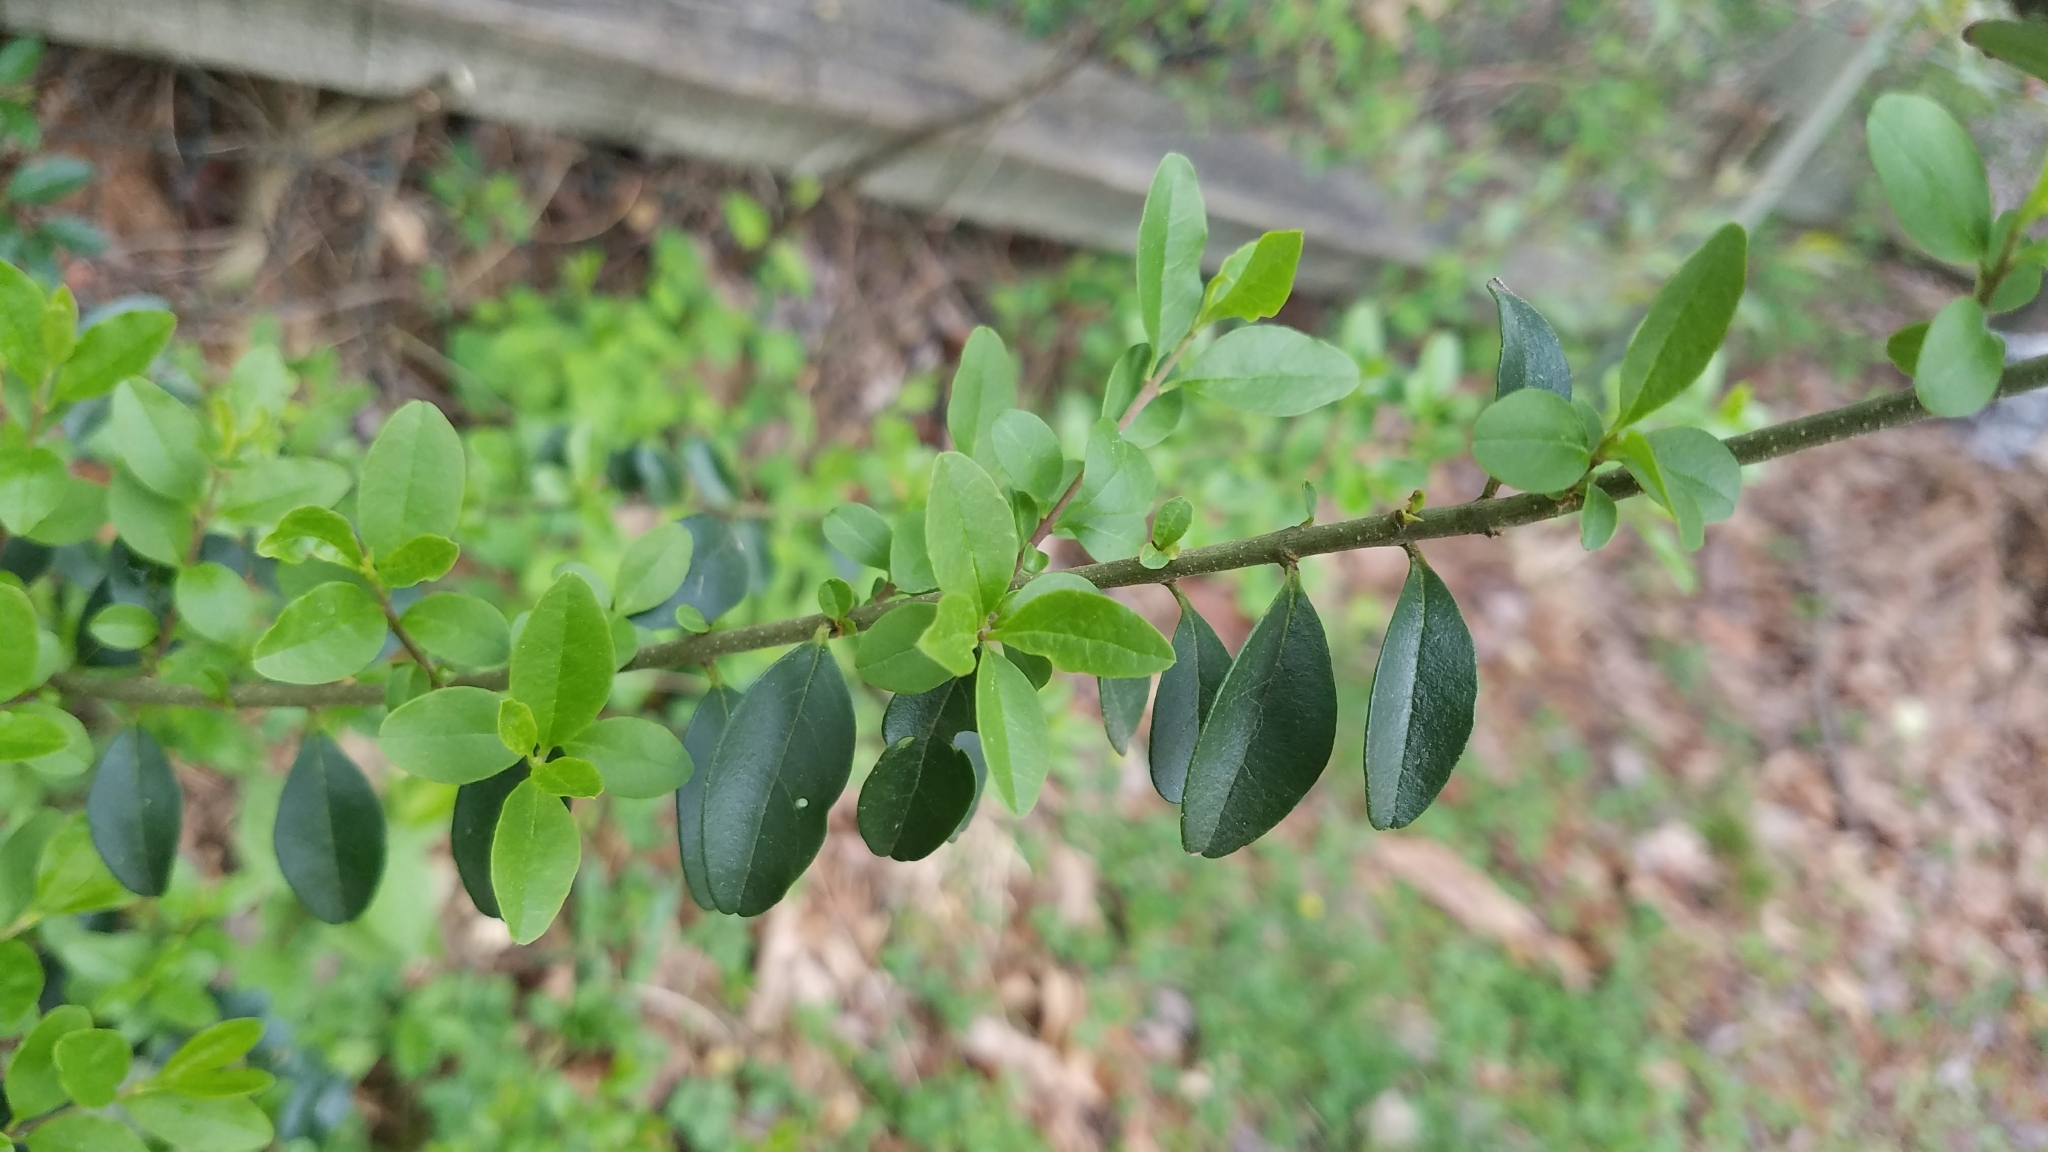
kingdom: Plantae
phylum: Tracheophyta
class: Magnoliopsida
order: Lamiales
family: Oleaceae
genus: Ligustrum
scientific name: Ligustrum sinense
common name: Chinese privet
